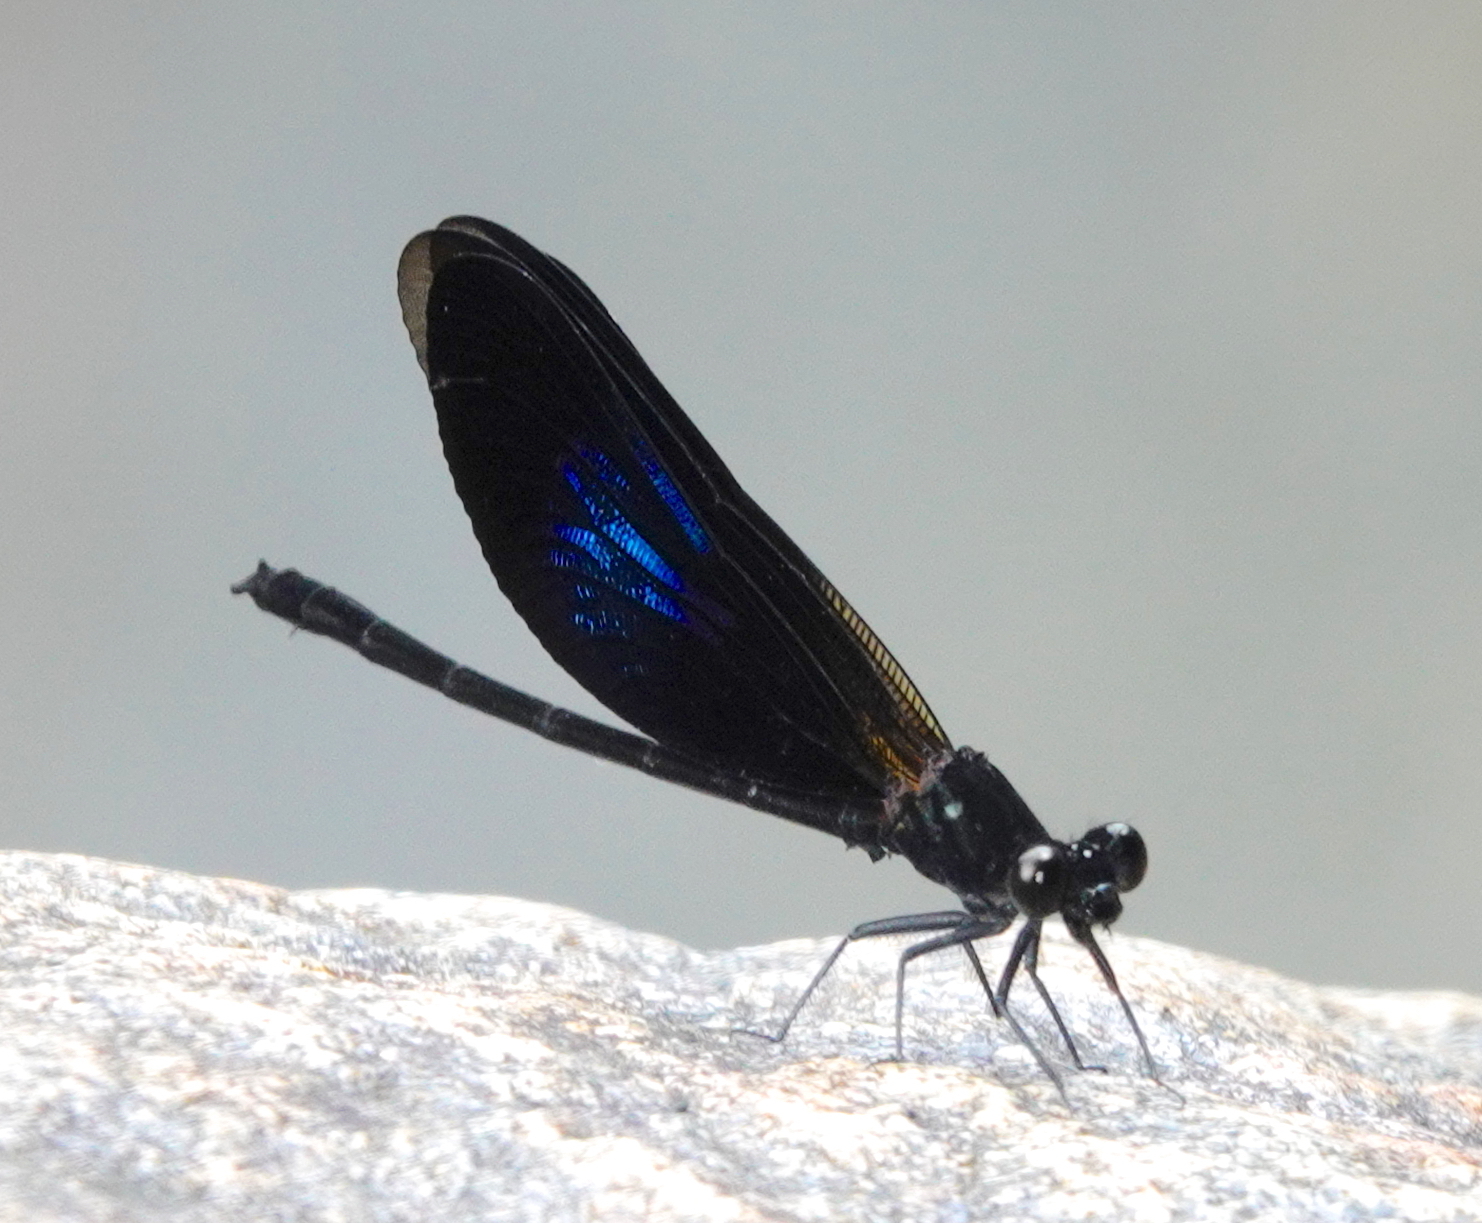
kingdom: Animalia
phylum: Arthropoda
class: Insecta
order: Odonata
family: Euphaeidae
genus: Euphaea
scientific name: Euphaea splendens
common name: Shining gossamerwing
